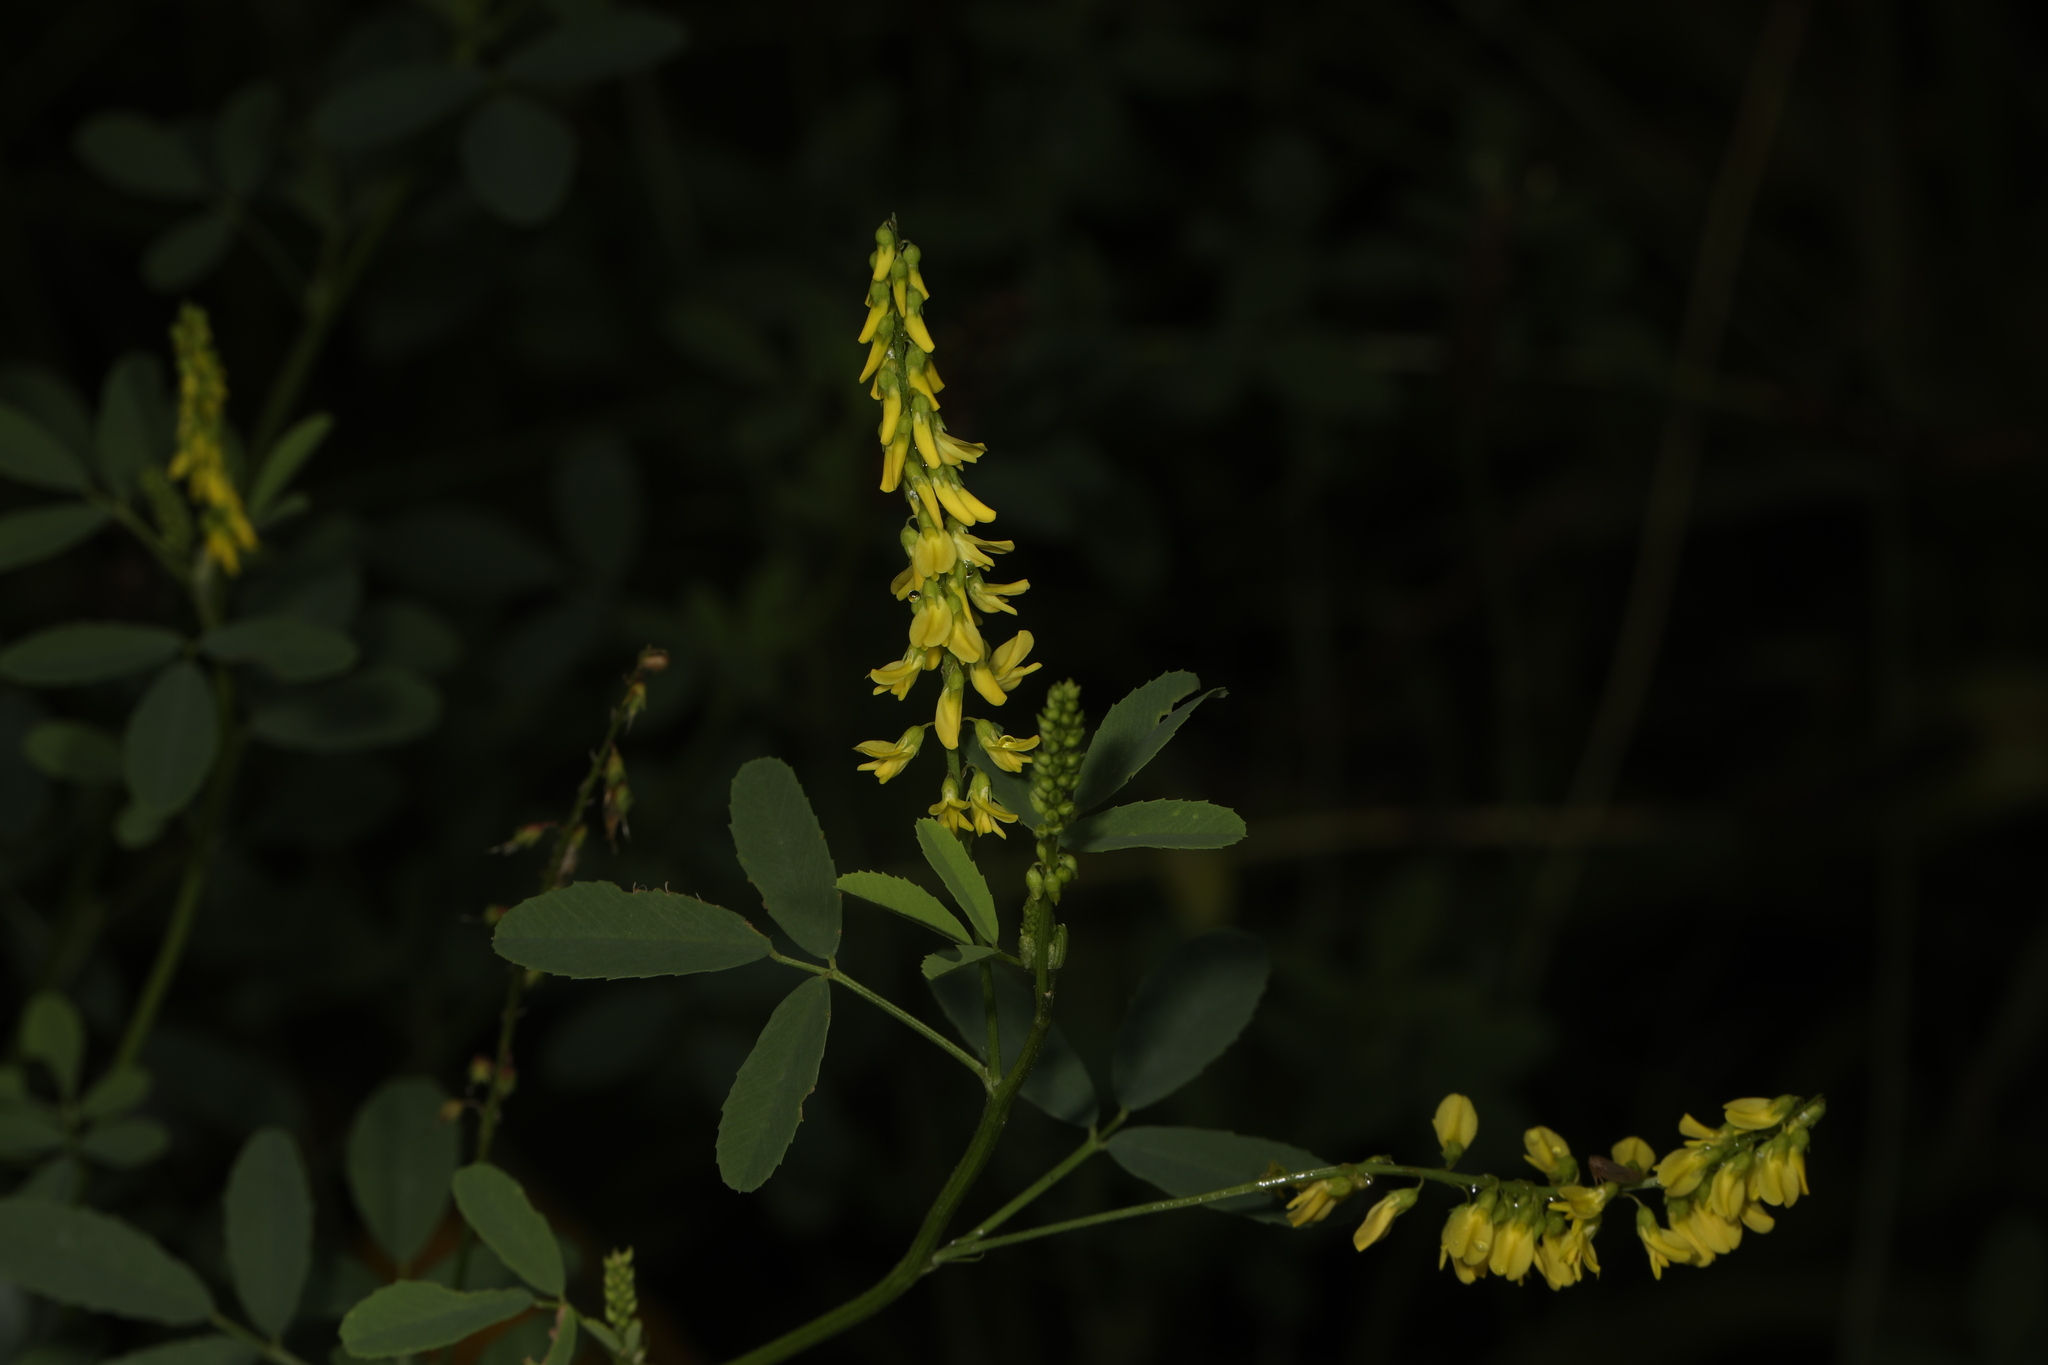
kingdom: Plantae
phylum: Tracheophyta
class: Magnoliopsida
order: Fabales
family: Fabaceae
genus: Melilotus
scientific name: Melilotus officinalis
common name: Sweetclover
